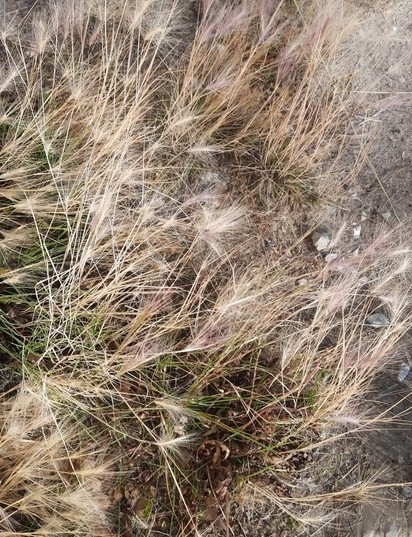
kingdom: Plantae
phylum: Tracheophyta
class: Liliopsida
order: Poales
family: Poaceae
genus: Hordeum
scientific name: Hordeum jubatum
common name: Foxtail barley
